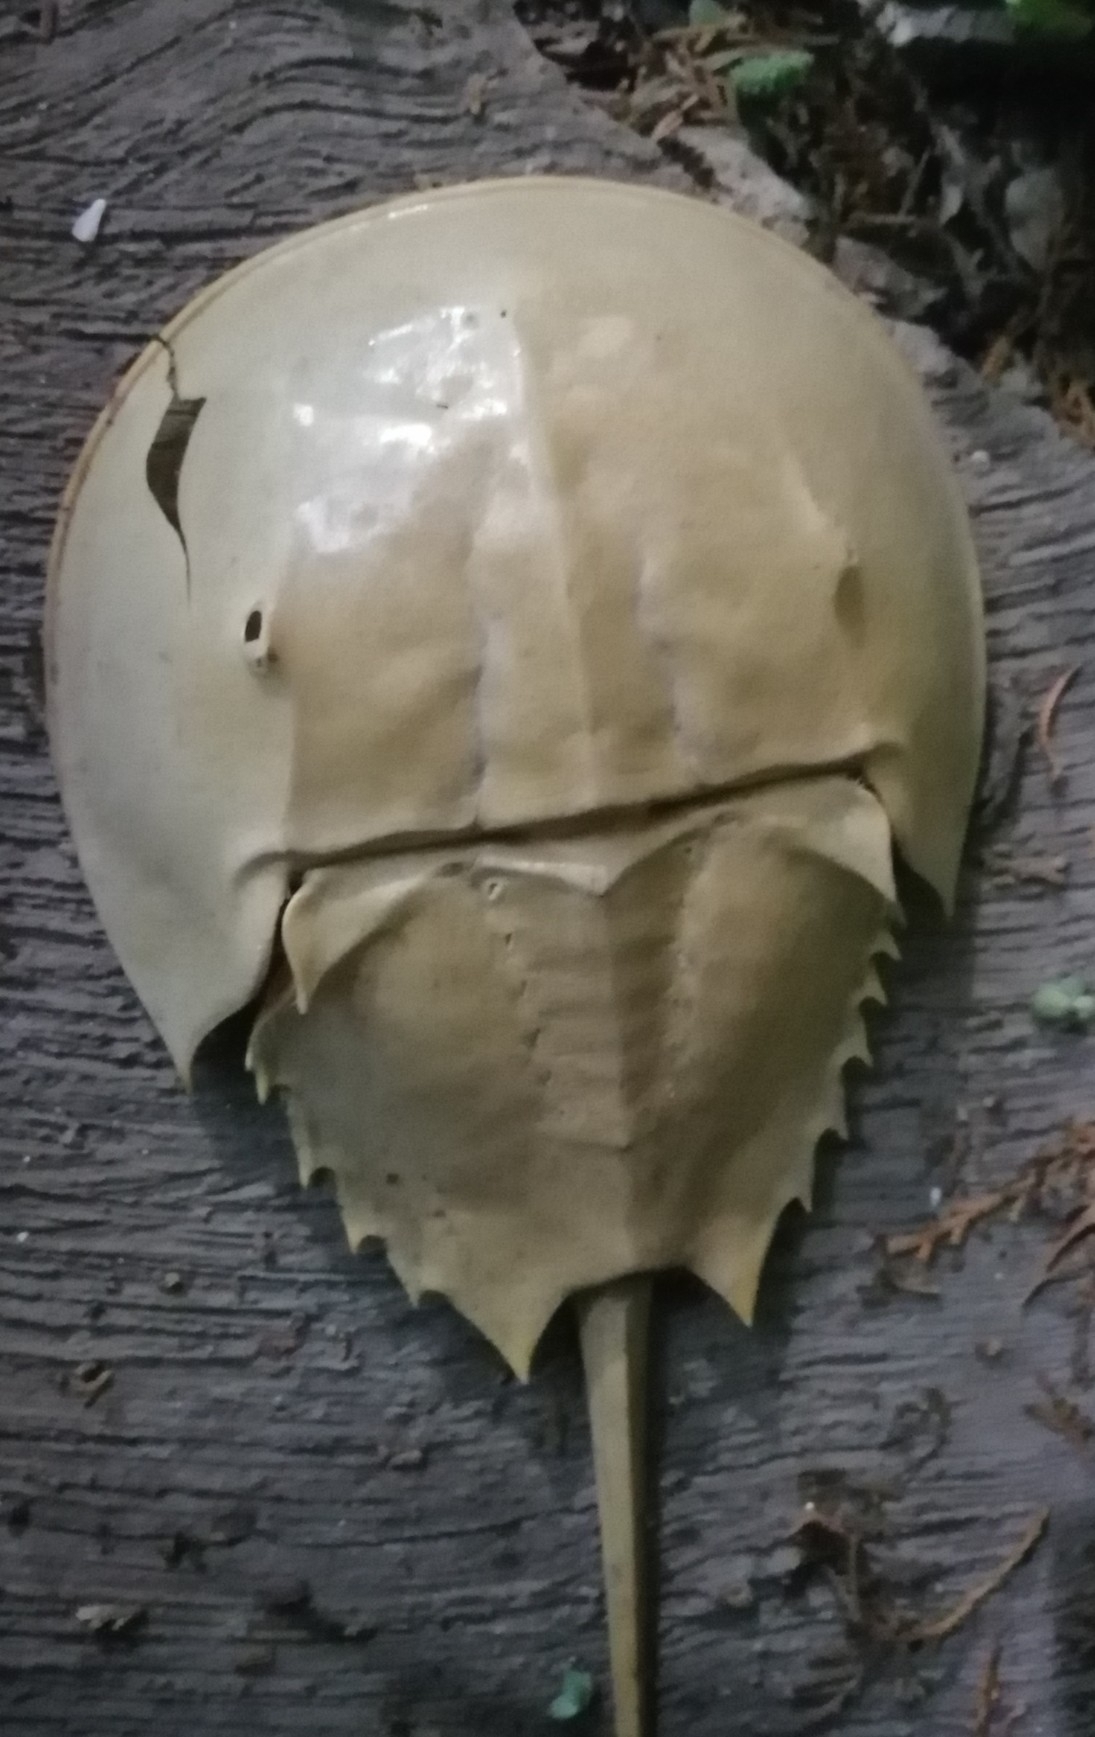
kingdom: Animalia
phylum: Arthropoda
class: Merostomata
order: Xiphosurida
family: Limulidae
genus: Limulus
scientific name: Limulus polyphemus
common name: Horseshoe crab
